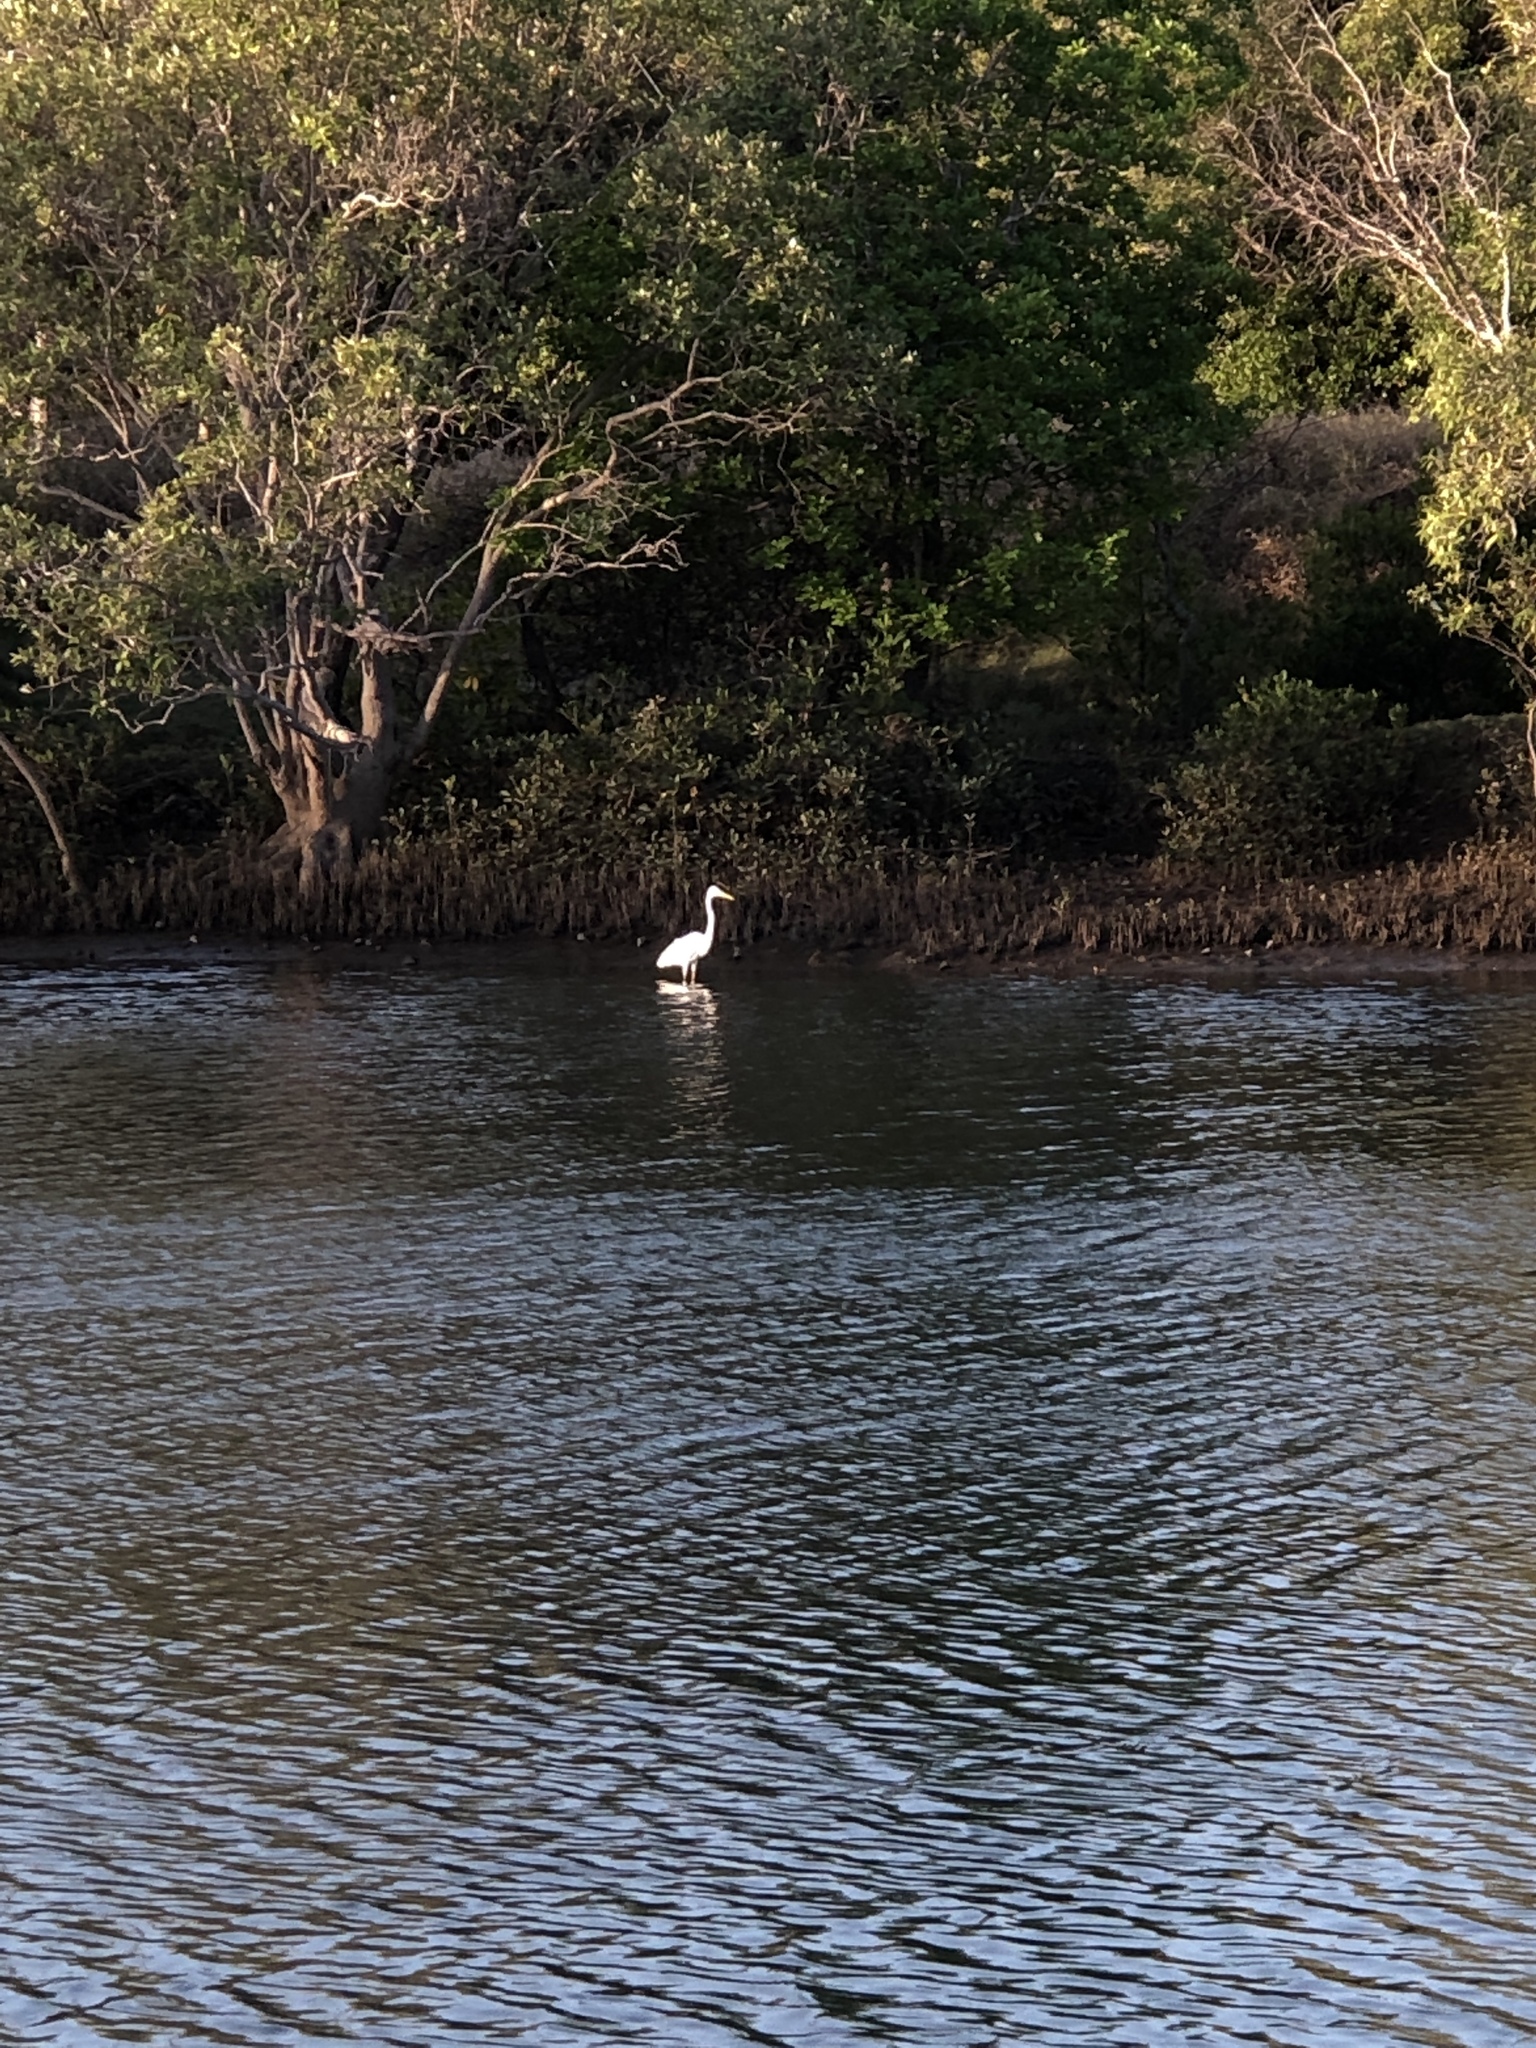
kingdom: Animalia
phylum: Chordata
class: Aves
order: Pelecaniformes
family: Ardeidae
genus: Ardea
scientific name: Ardea alba
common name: Great egret
